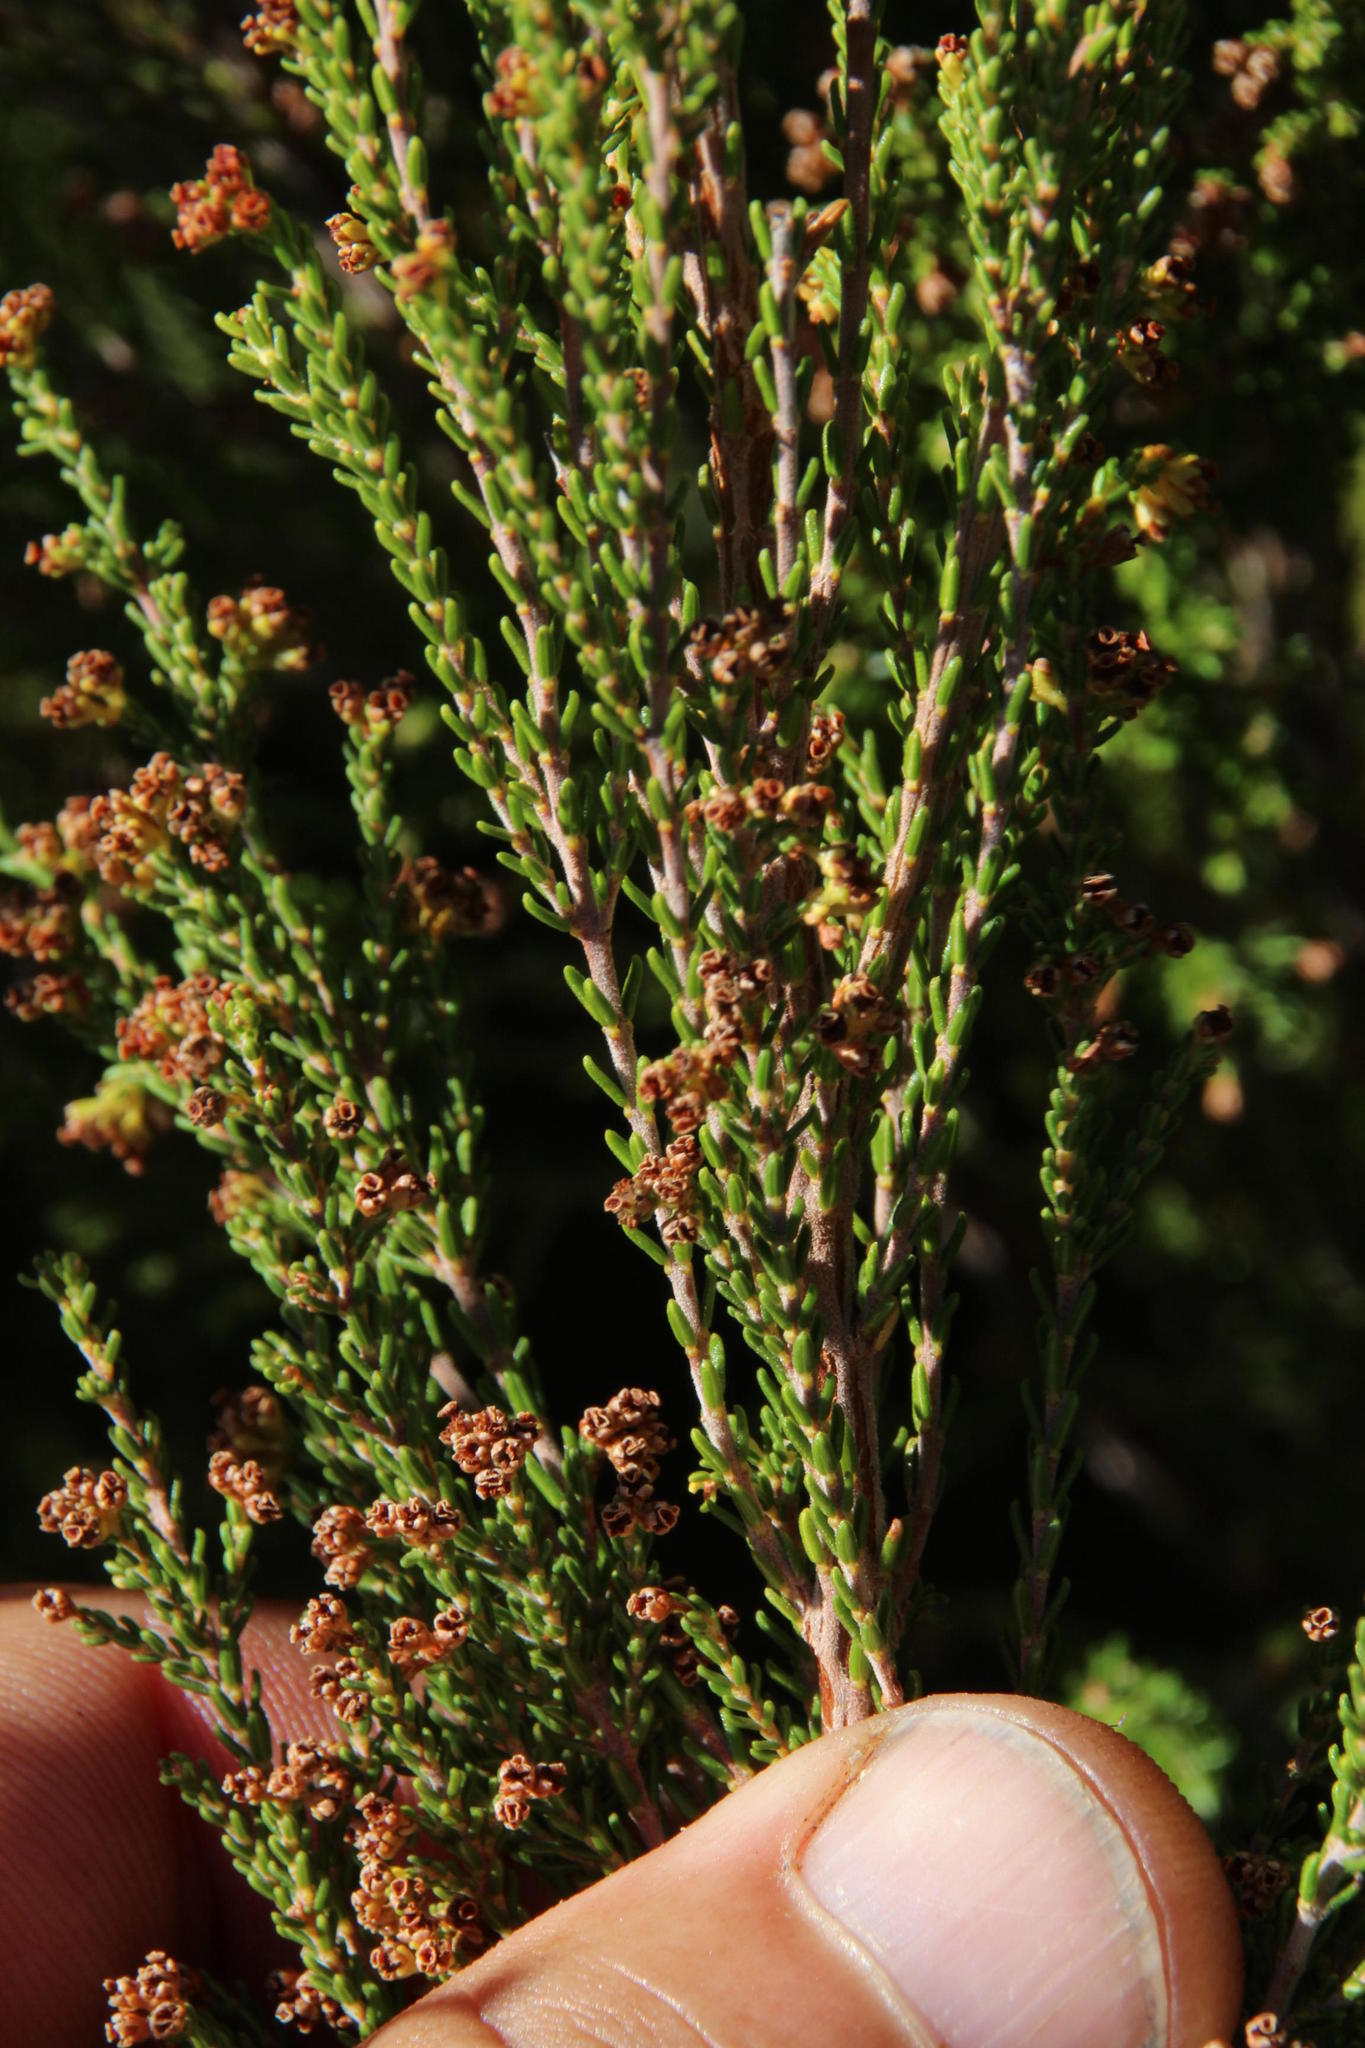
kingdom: Plantae
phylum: Tracheophyta
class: Magnoliopsida
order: Ericales
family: Ericaceae
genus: Erica
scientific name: Erica tristis
